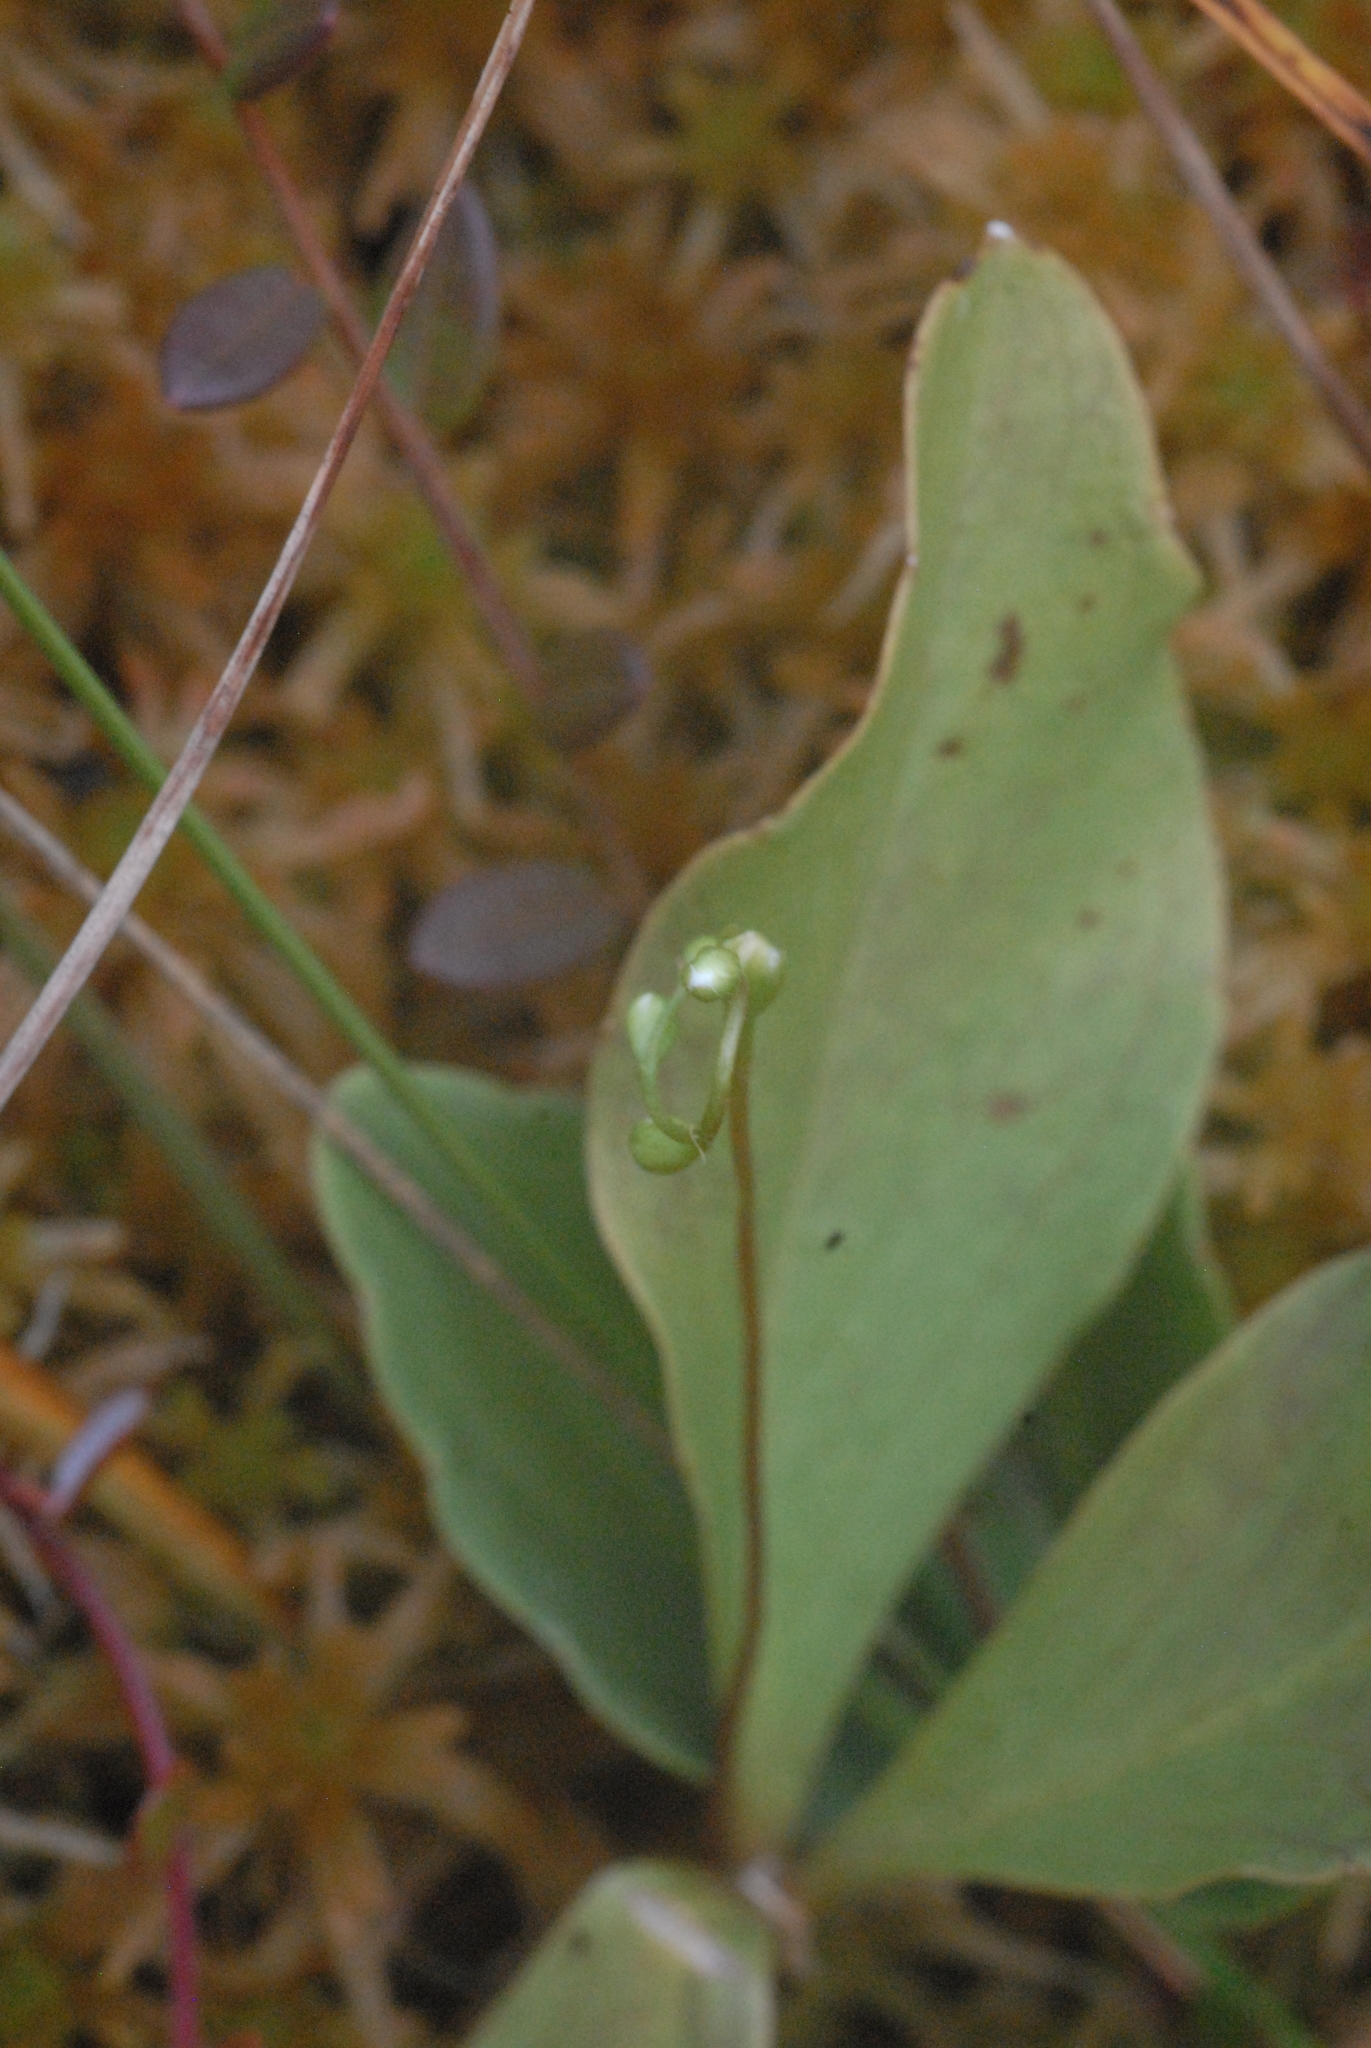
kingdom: Plantae
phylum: Tracheophyta
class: Magnoliopsida
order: Asterales
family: Menyanthaceae
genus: Menyanthes
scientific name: Menyanthes trifoliata
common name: Bogbean
